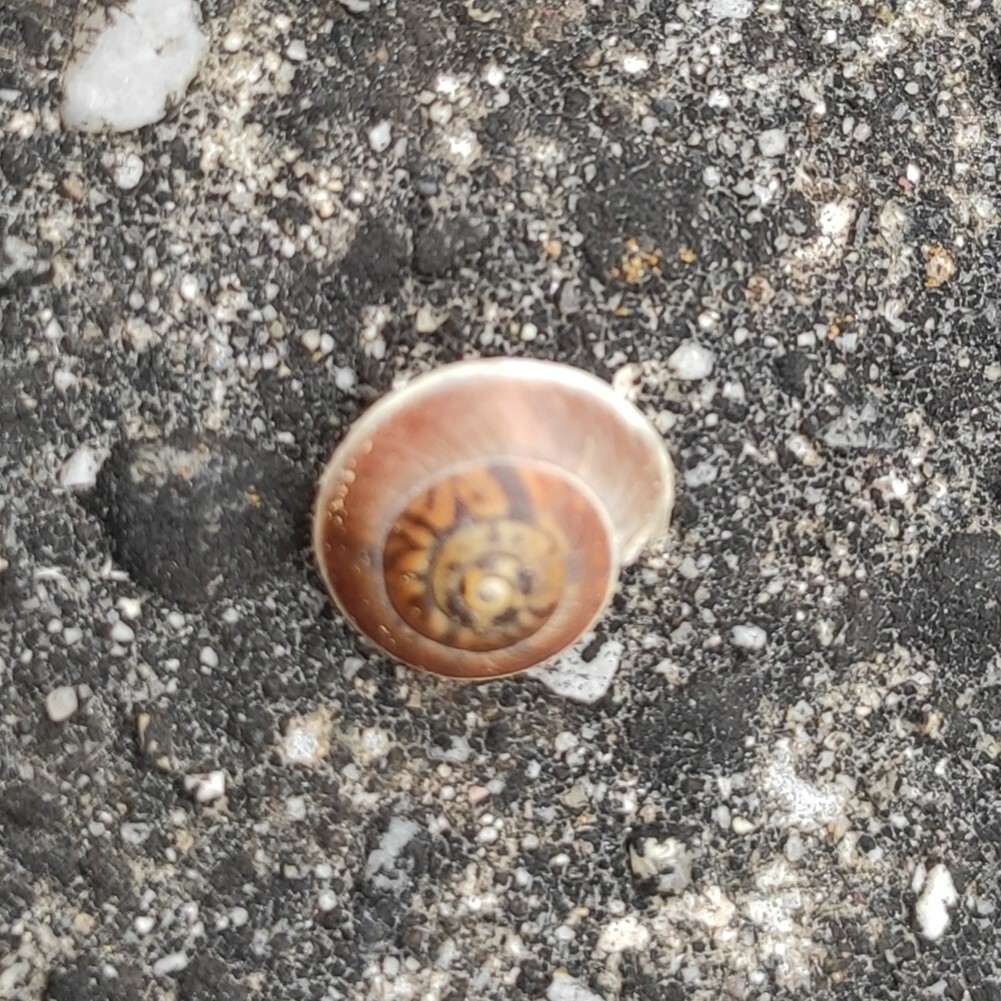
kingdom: Animalia
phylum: Mollusca
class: Gastropoda
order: Stylommatophora
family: Hygromiidae
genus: Hygromia
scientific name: Hygromia cinctella
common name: Girdled snail
